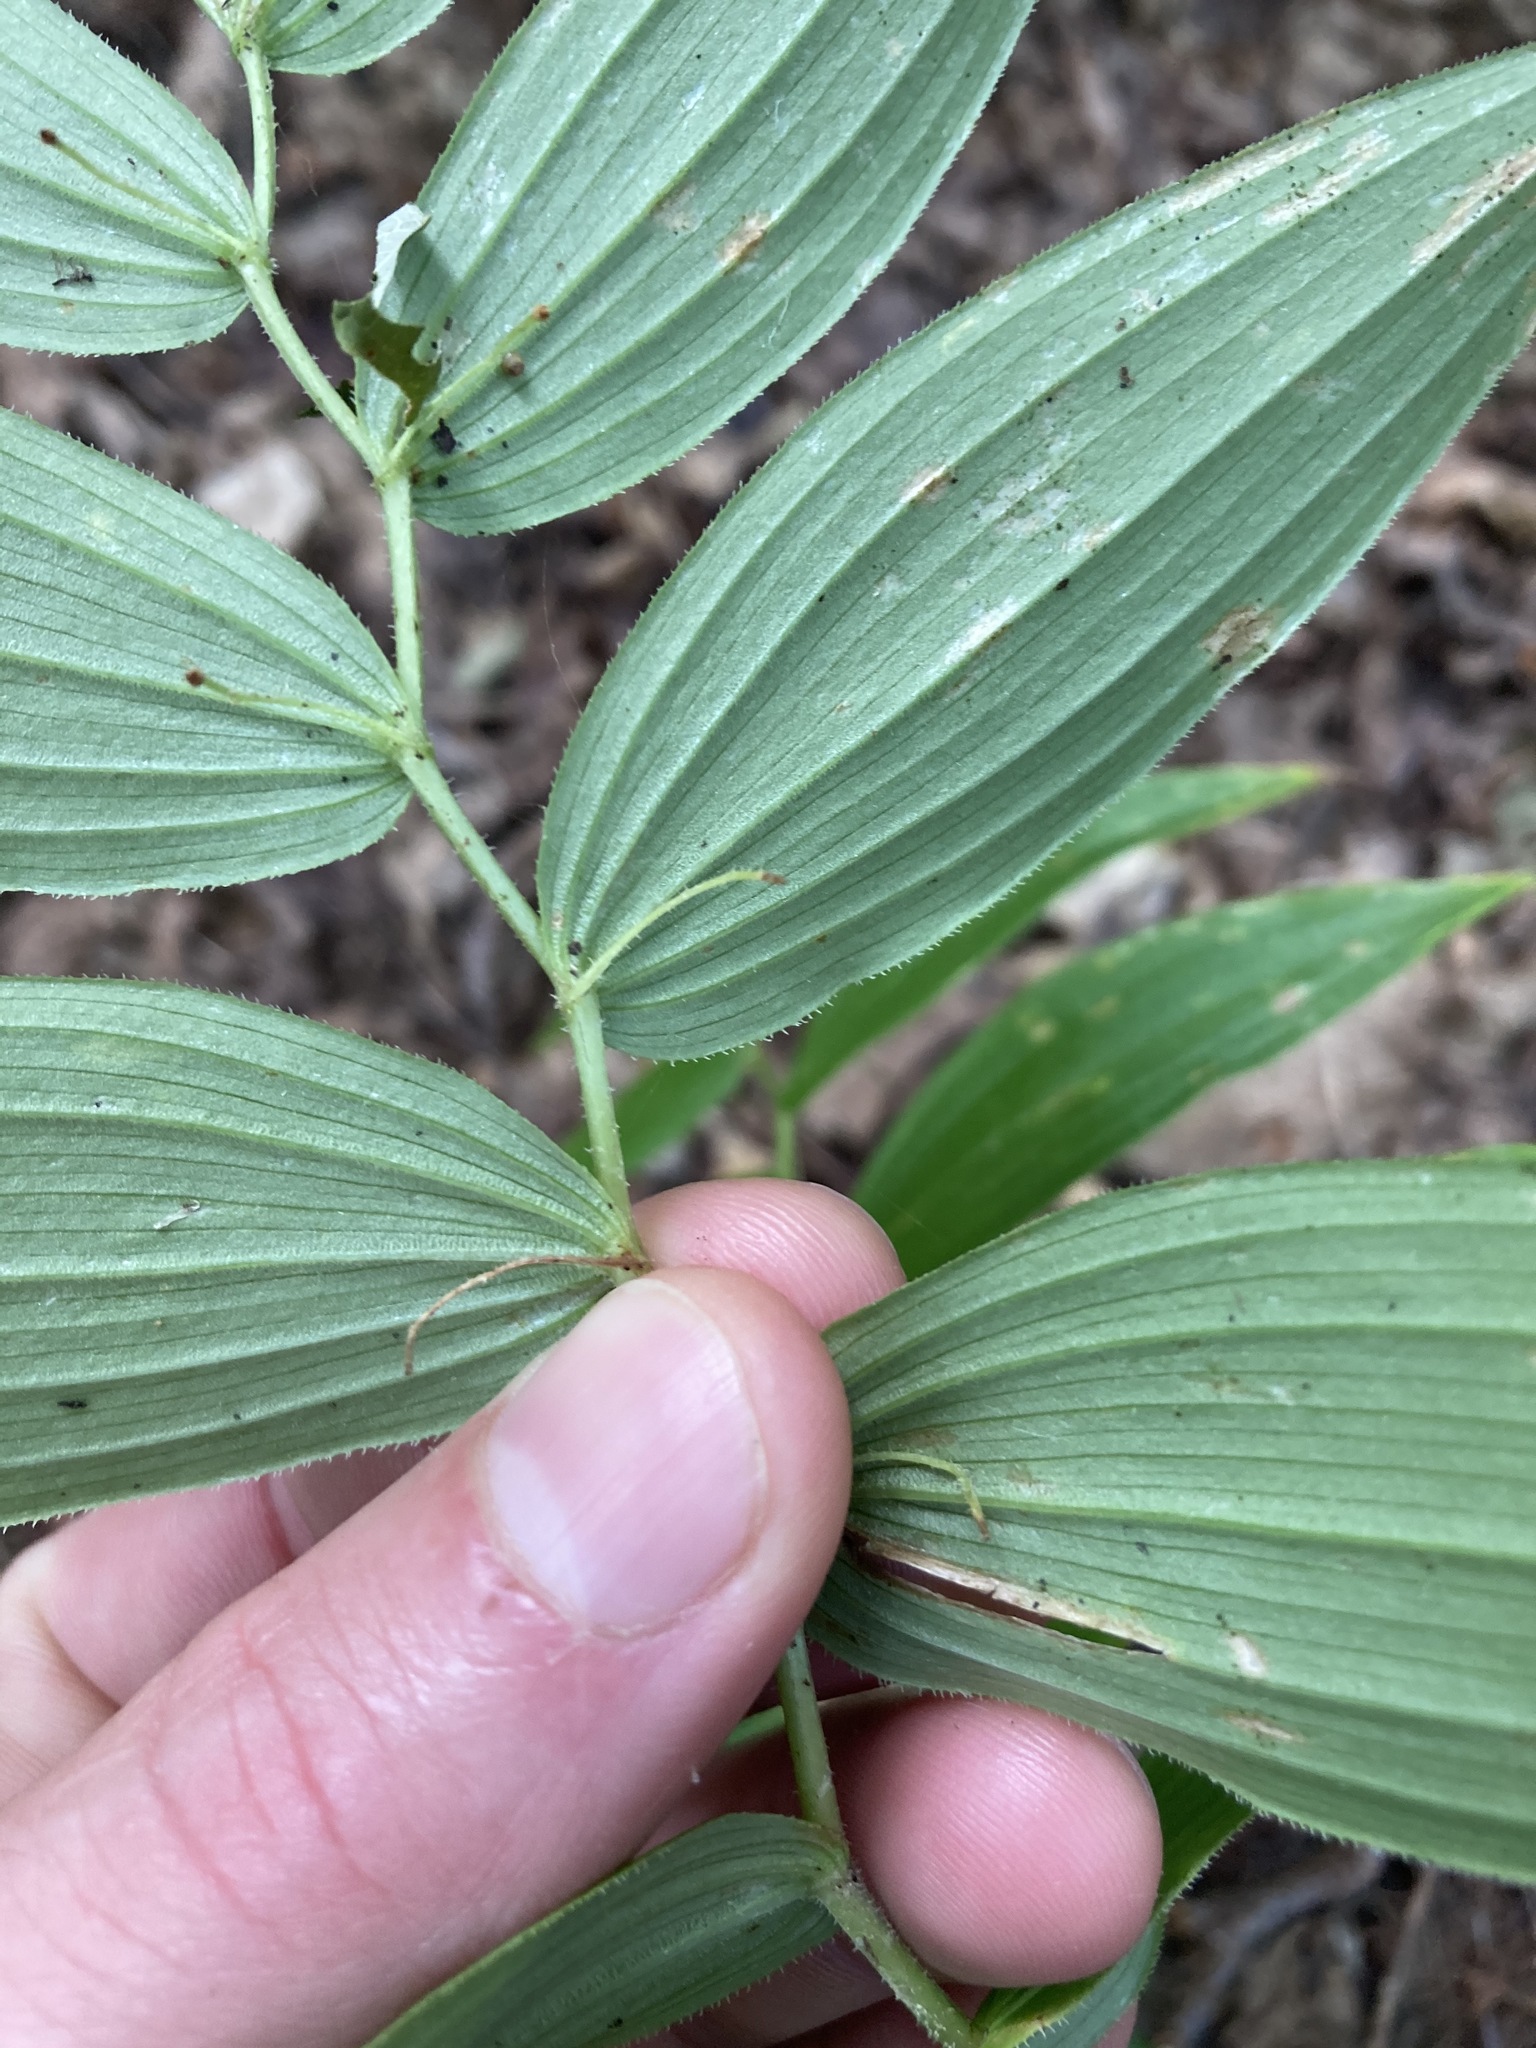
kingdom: Plantae
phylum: Tracheophyta
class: Liliopsida
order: Liliales
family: Liliaceae
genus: Streptopus
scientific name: Streptopus lanceolatus
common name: Rose mandarin
